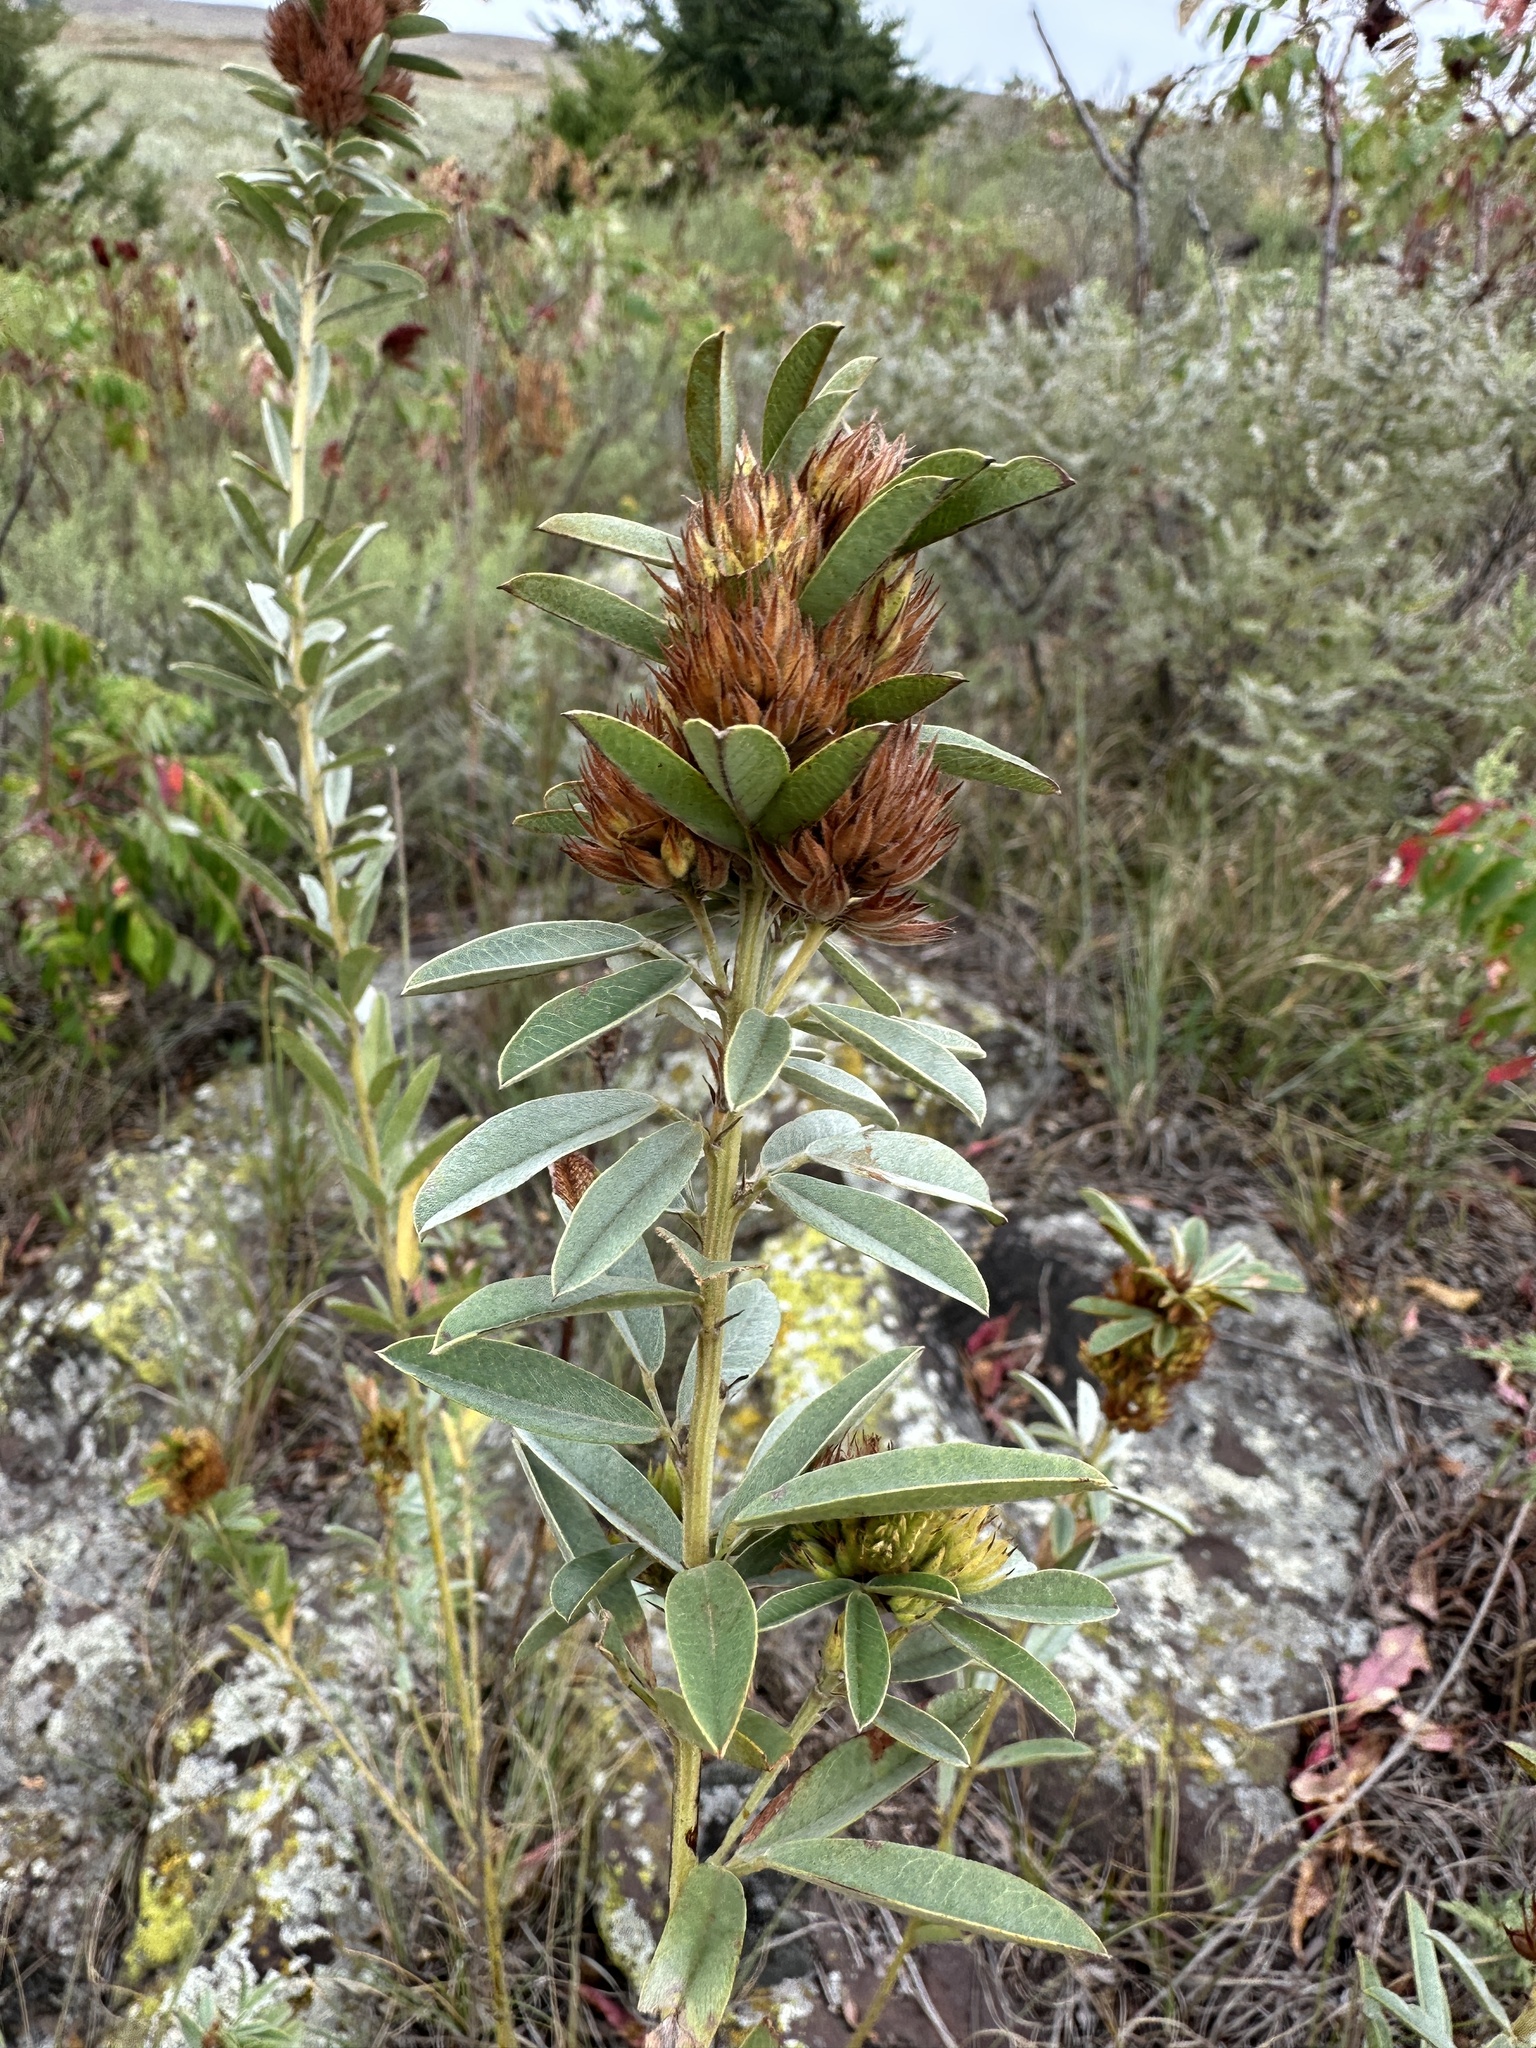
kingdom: Plantae
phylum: Tracheophyta
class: Magnoliopsida
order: Fabales
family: Fabaceae
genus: Lespedeza
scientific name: Lespedeza capitata
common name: Dusty clover
